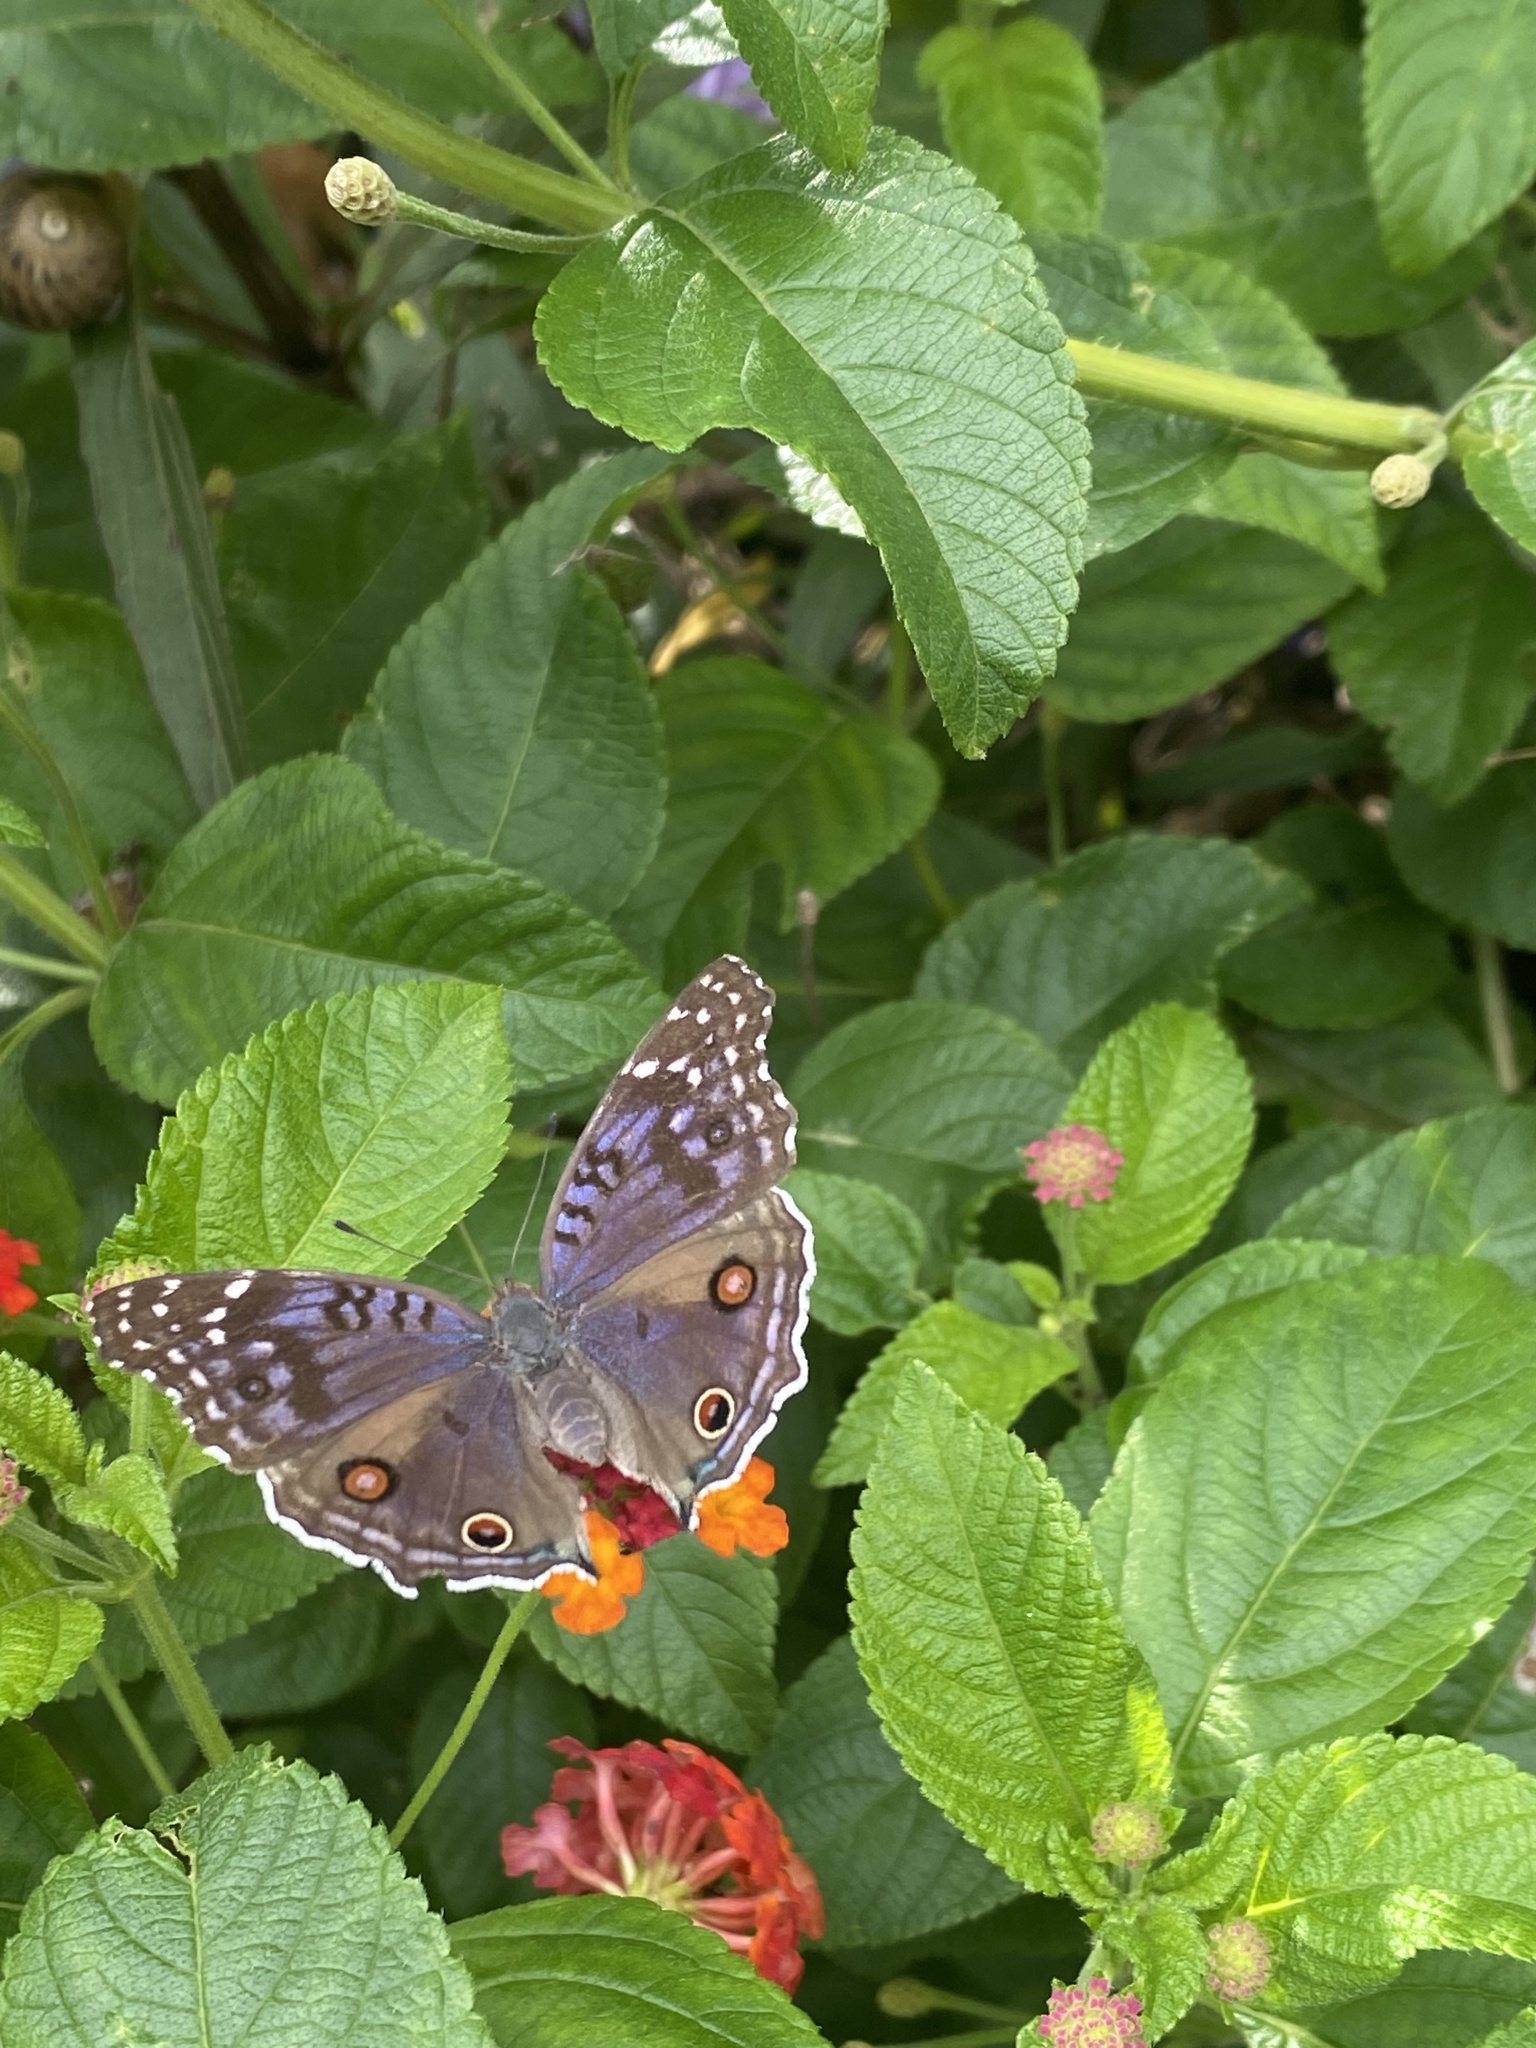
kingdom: Animalia
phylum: Arthropoda
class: Insecta
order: Lepidoptera
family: Nymphalidae
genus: Junonia
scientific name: Junonia rhadama
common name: Royal blue pansy
